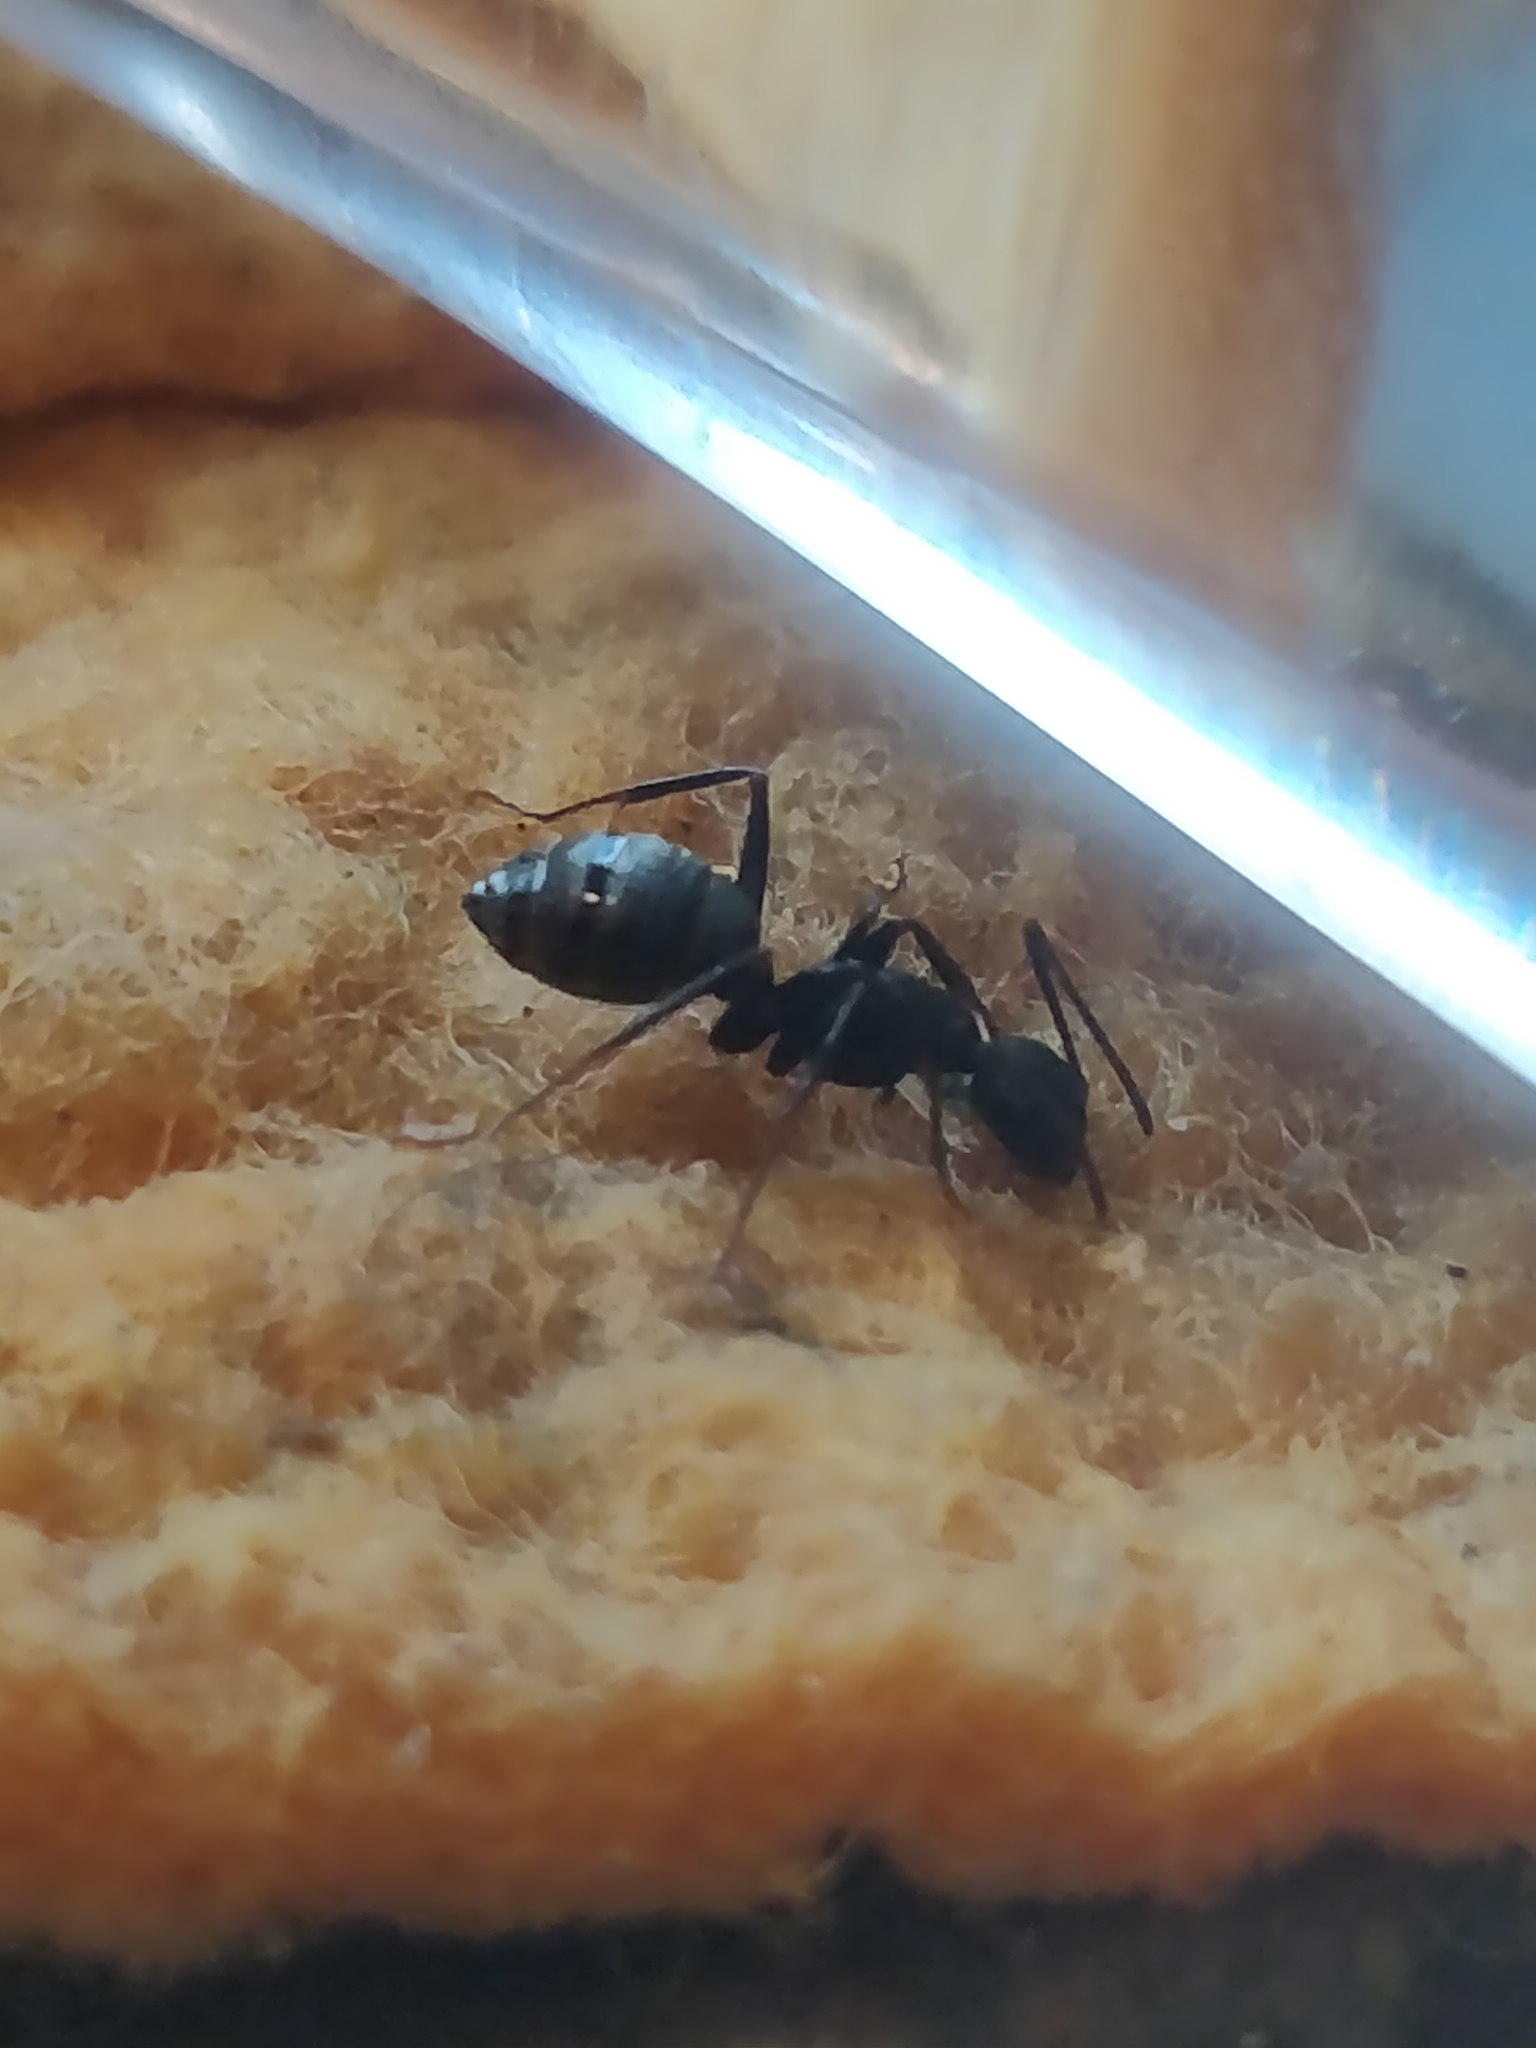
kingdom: Animalia
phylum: Arthropoda
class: Insecta
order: Hymenoptera
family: Formicidae
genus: Camponotus
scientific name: Camponotus pennsylvanicus
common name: Black carpenter ant
